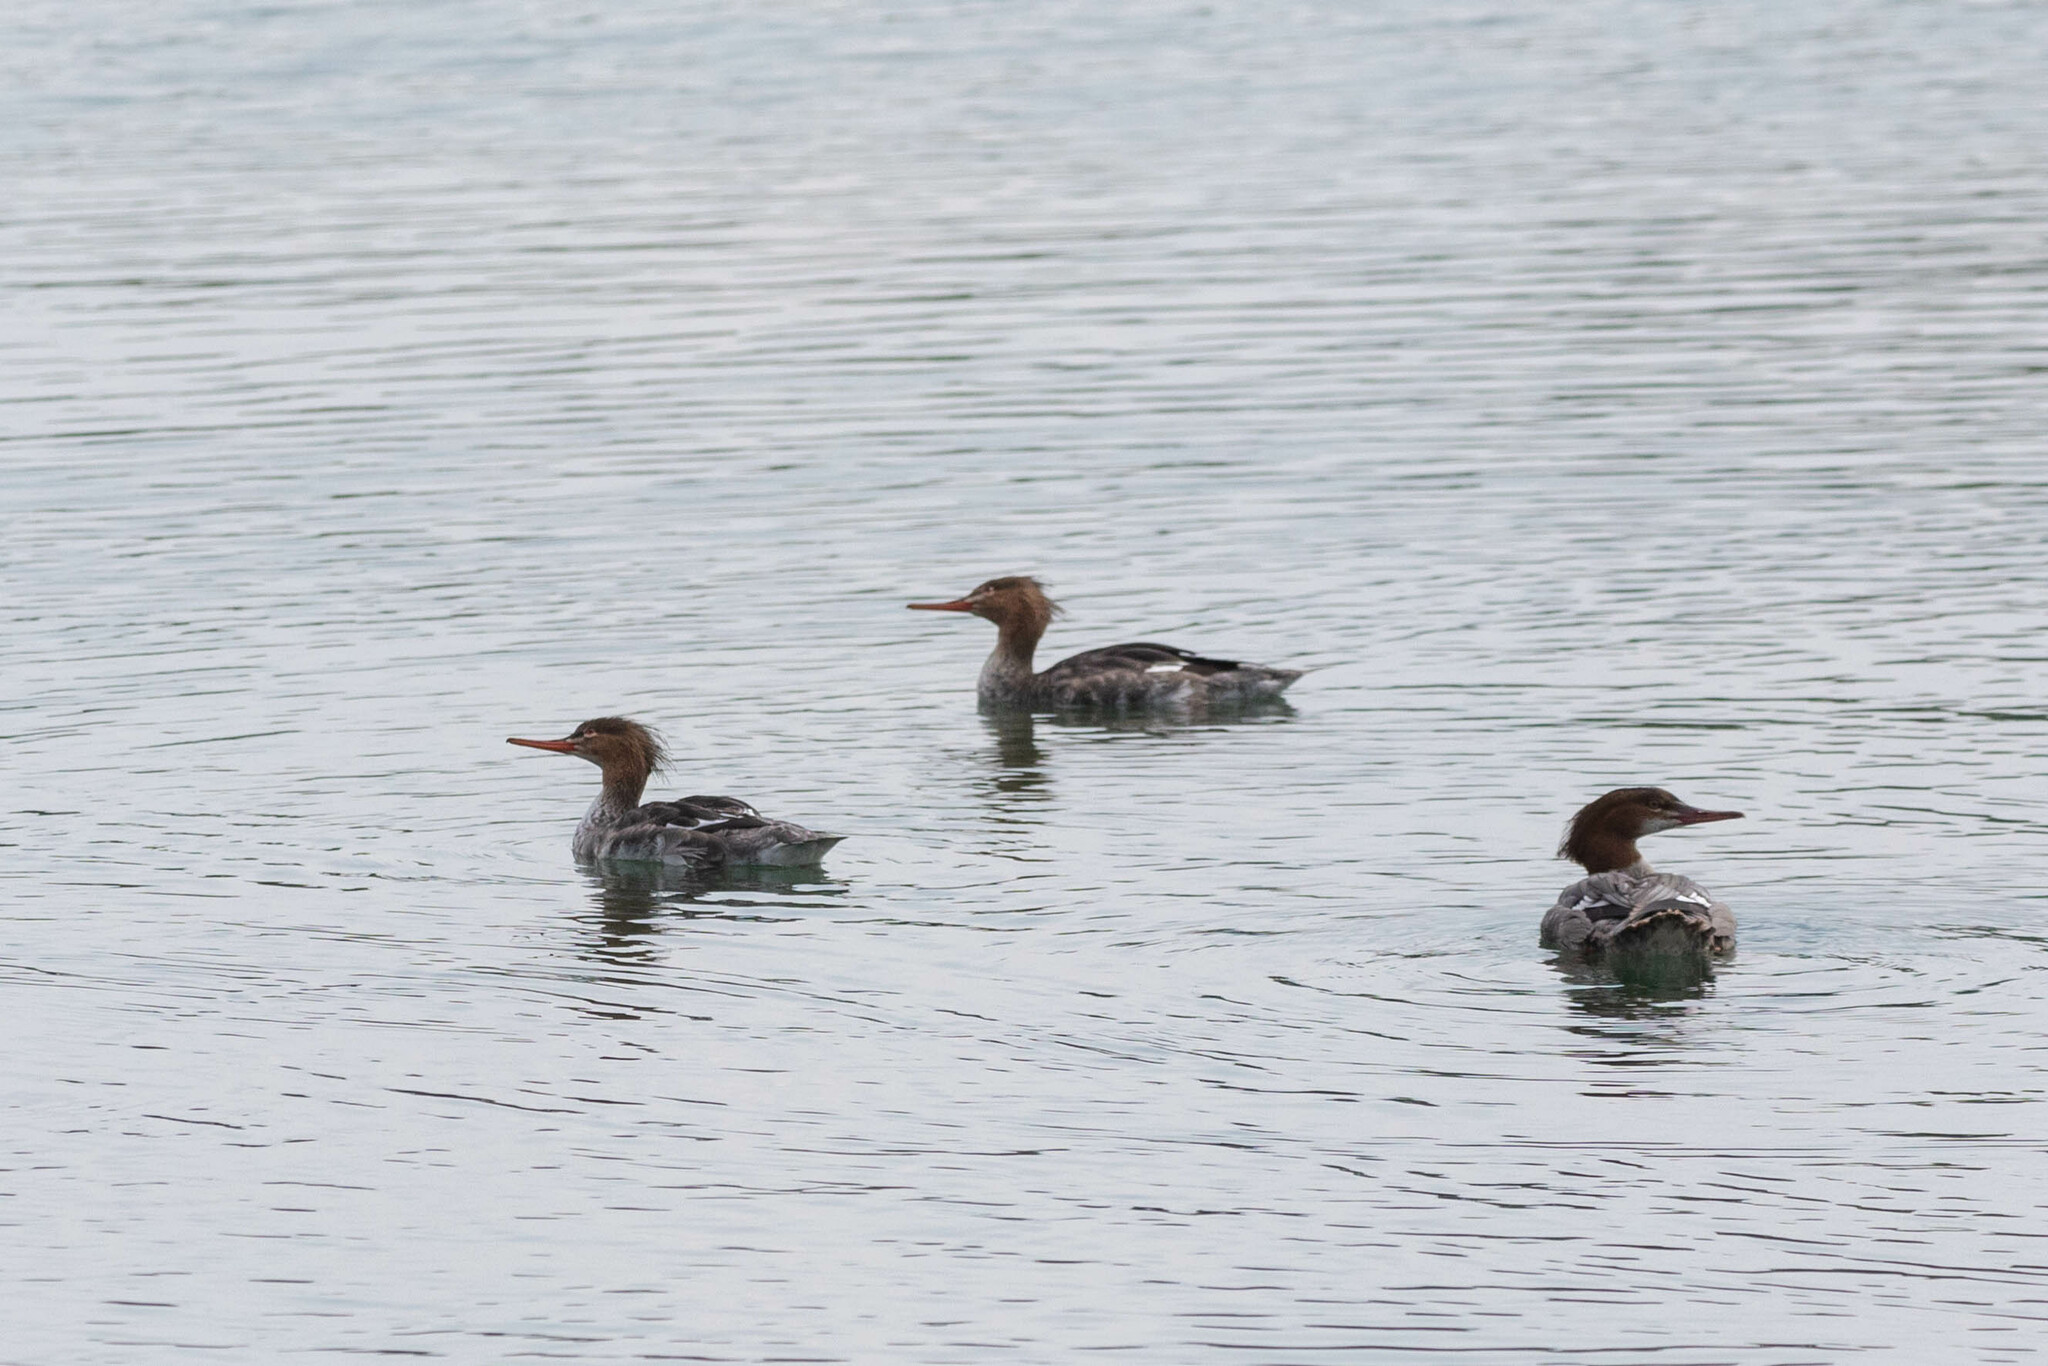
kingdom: Animalia
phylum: Chordata
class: Aves
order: Anseriformes
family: Anatidae
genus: Mergus
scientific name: Mergus serrator
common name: Red-breasted merganser
